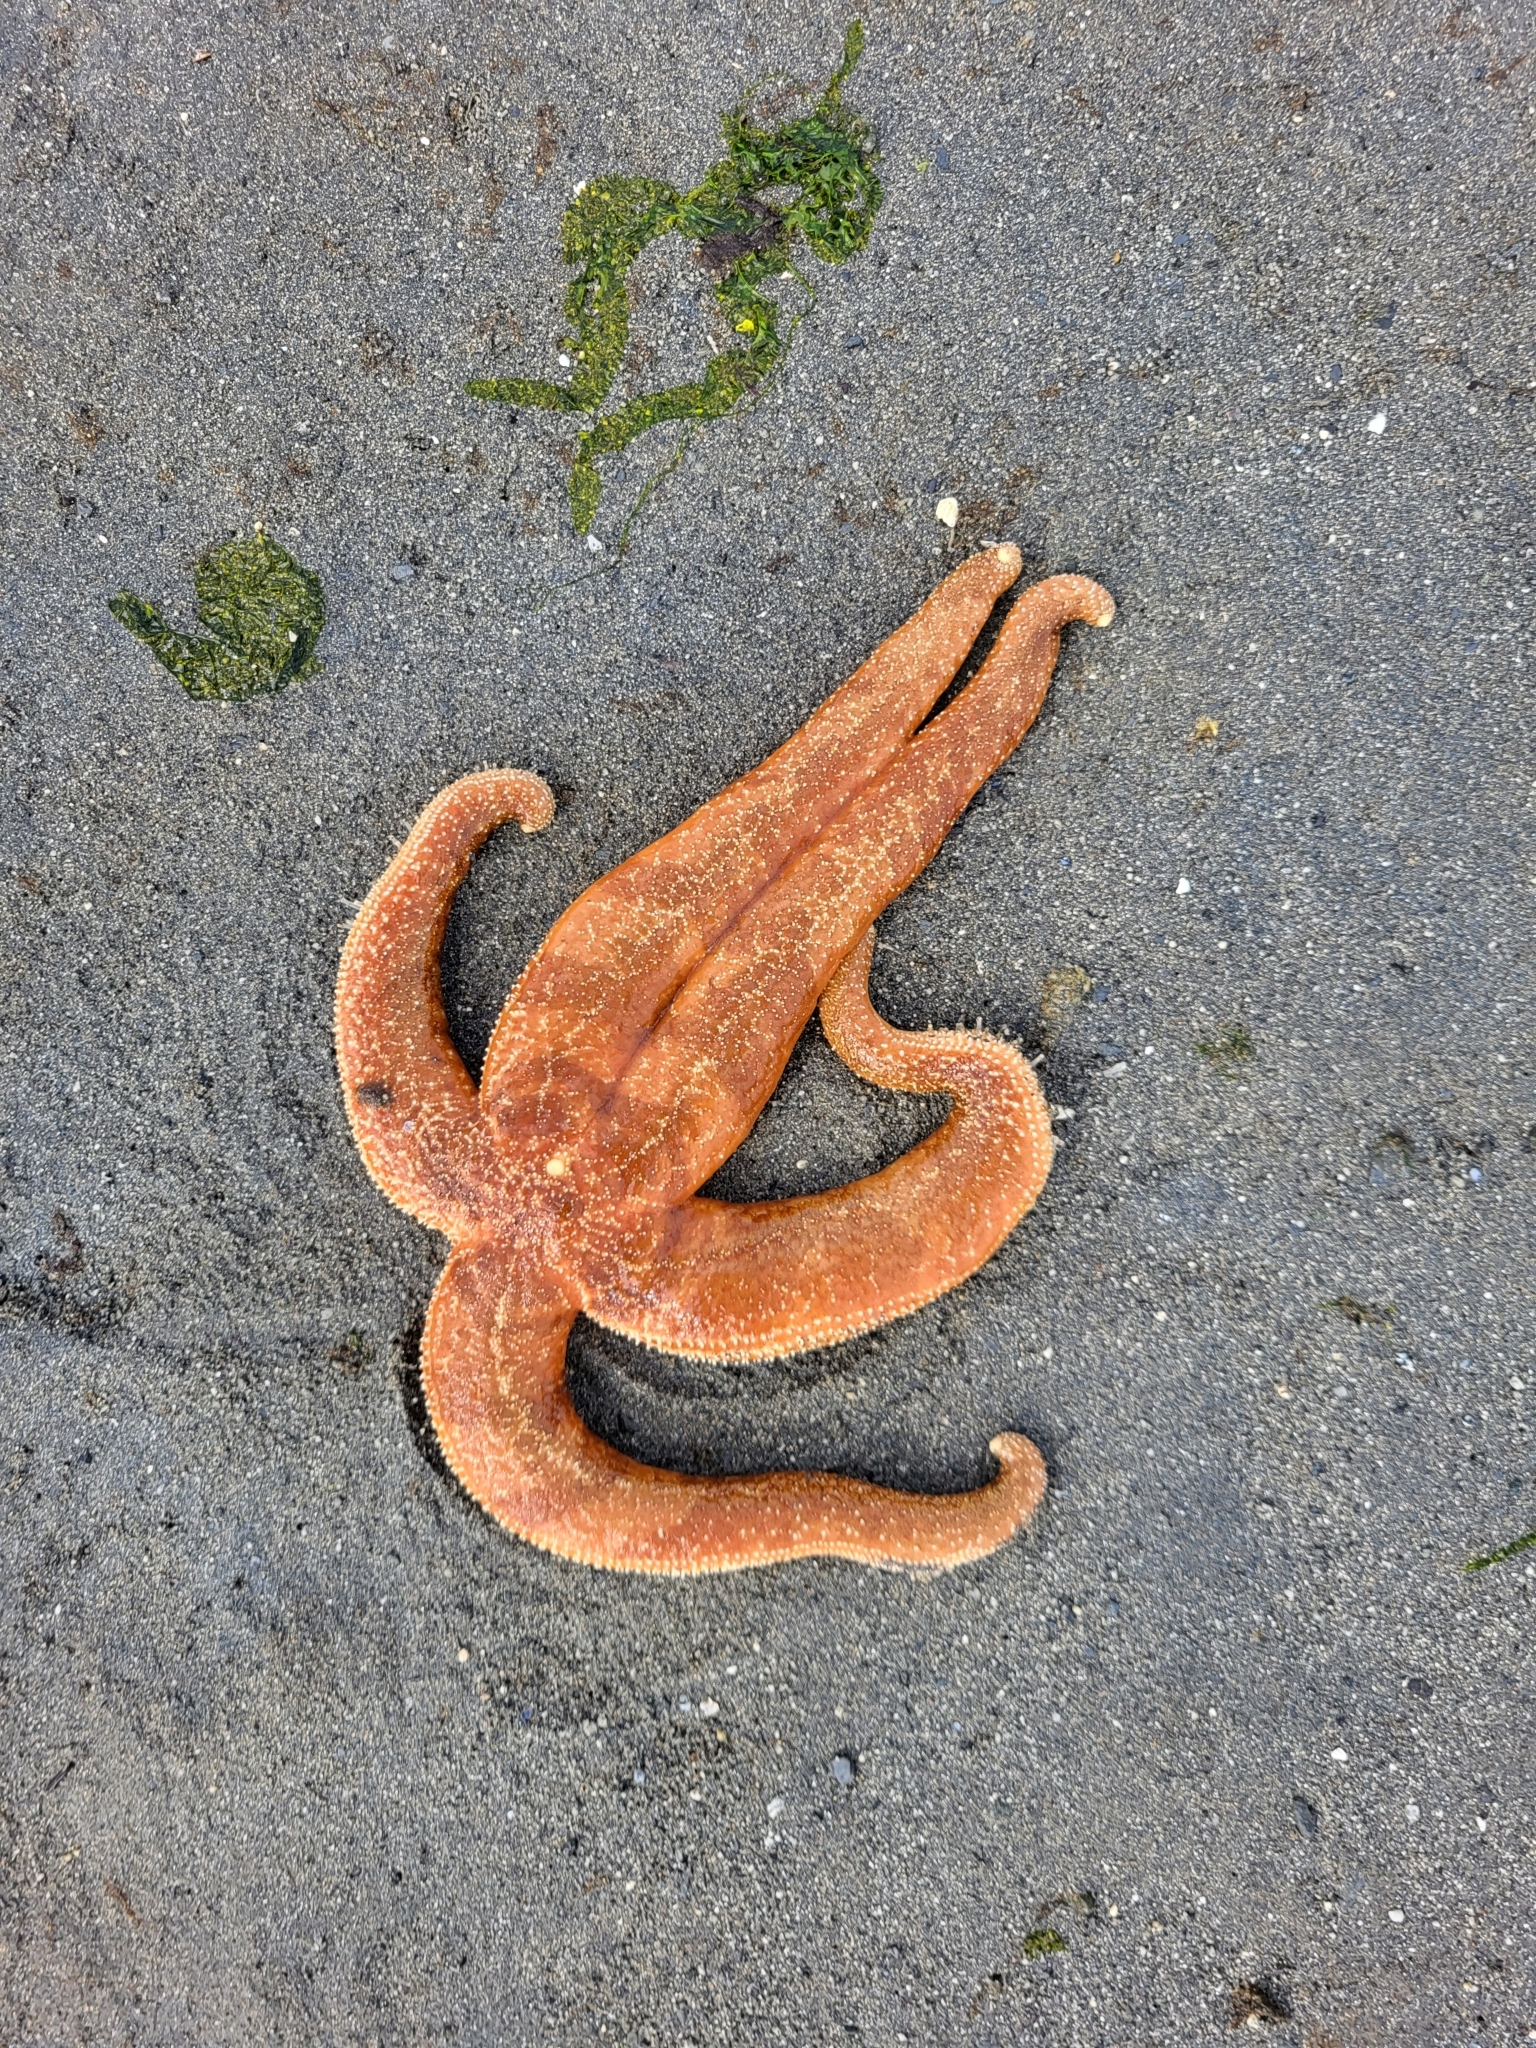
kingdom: Animalia
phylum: Echinodermata
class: Asteroidea
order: Forcipulatida
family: Asteriidae
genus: Evasterias
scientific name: Evasterias troschelii
